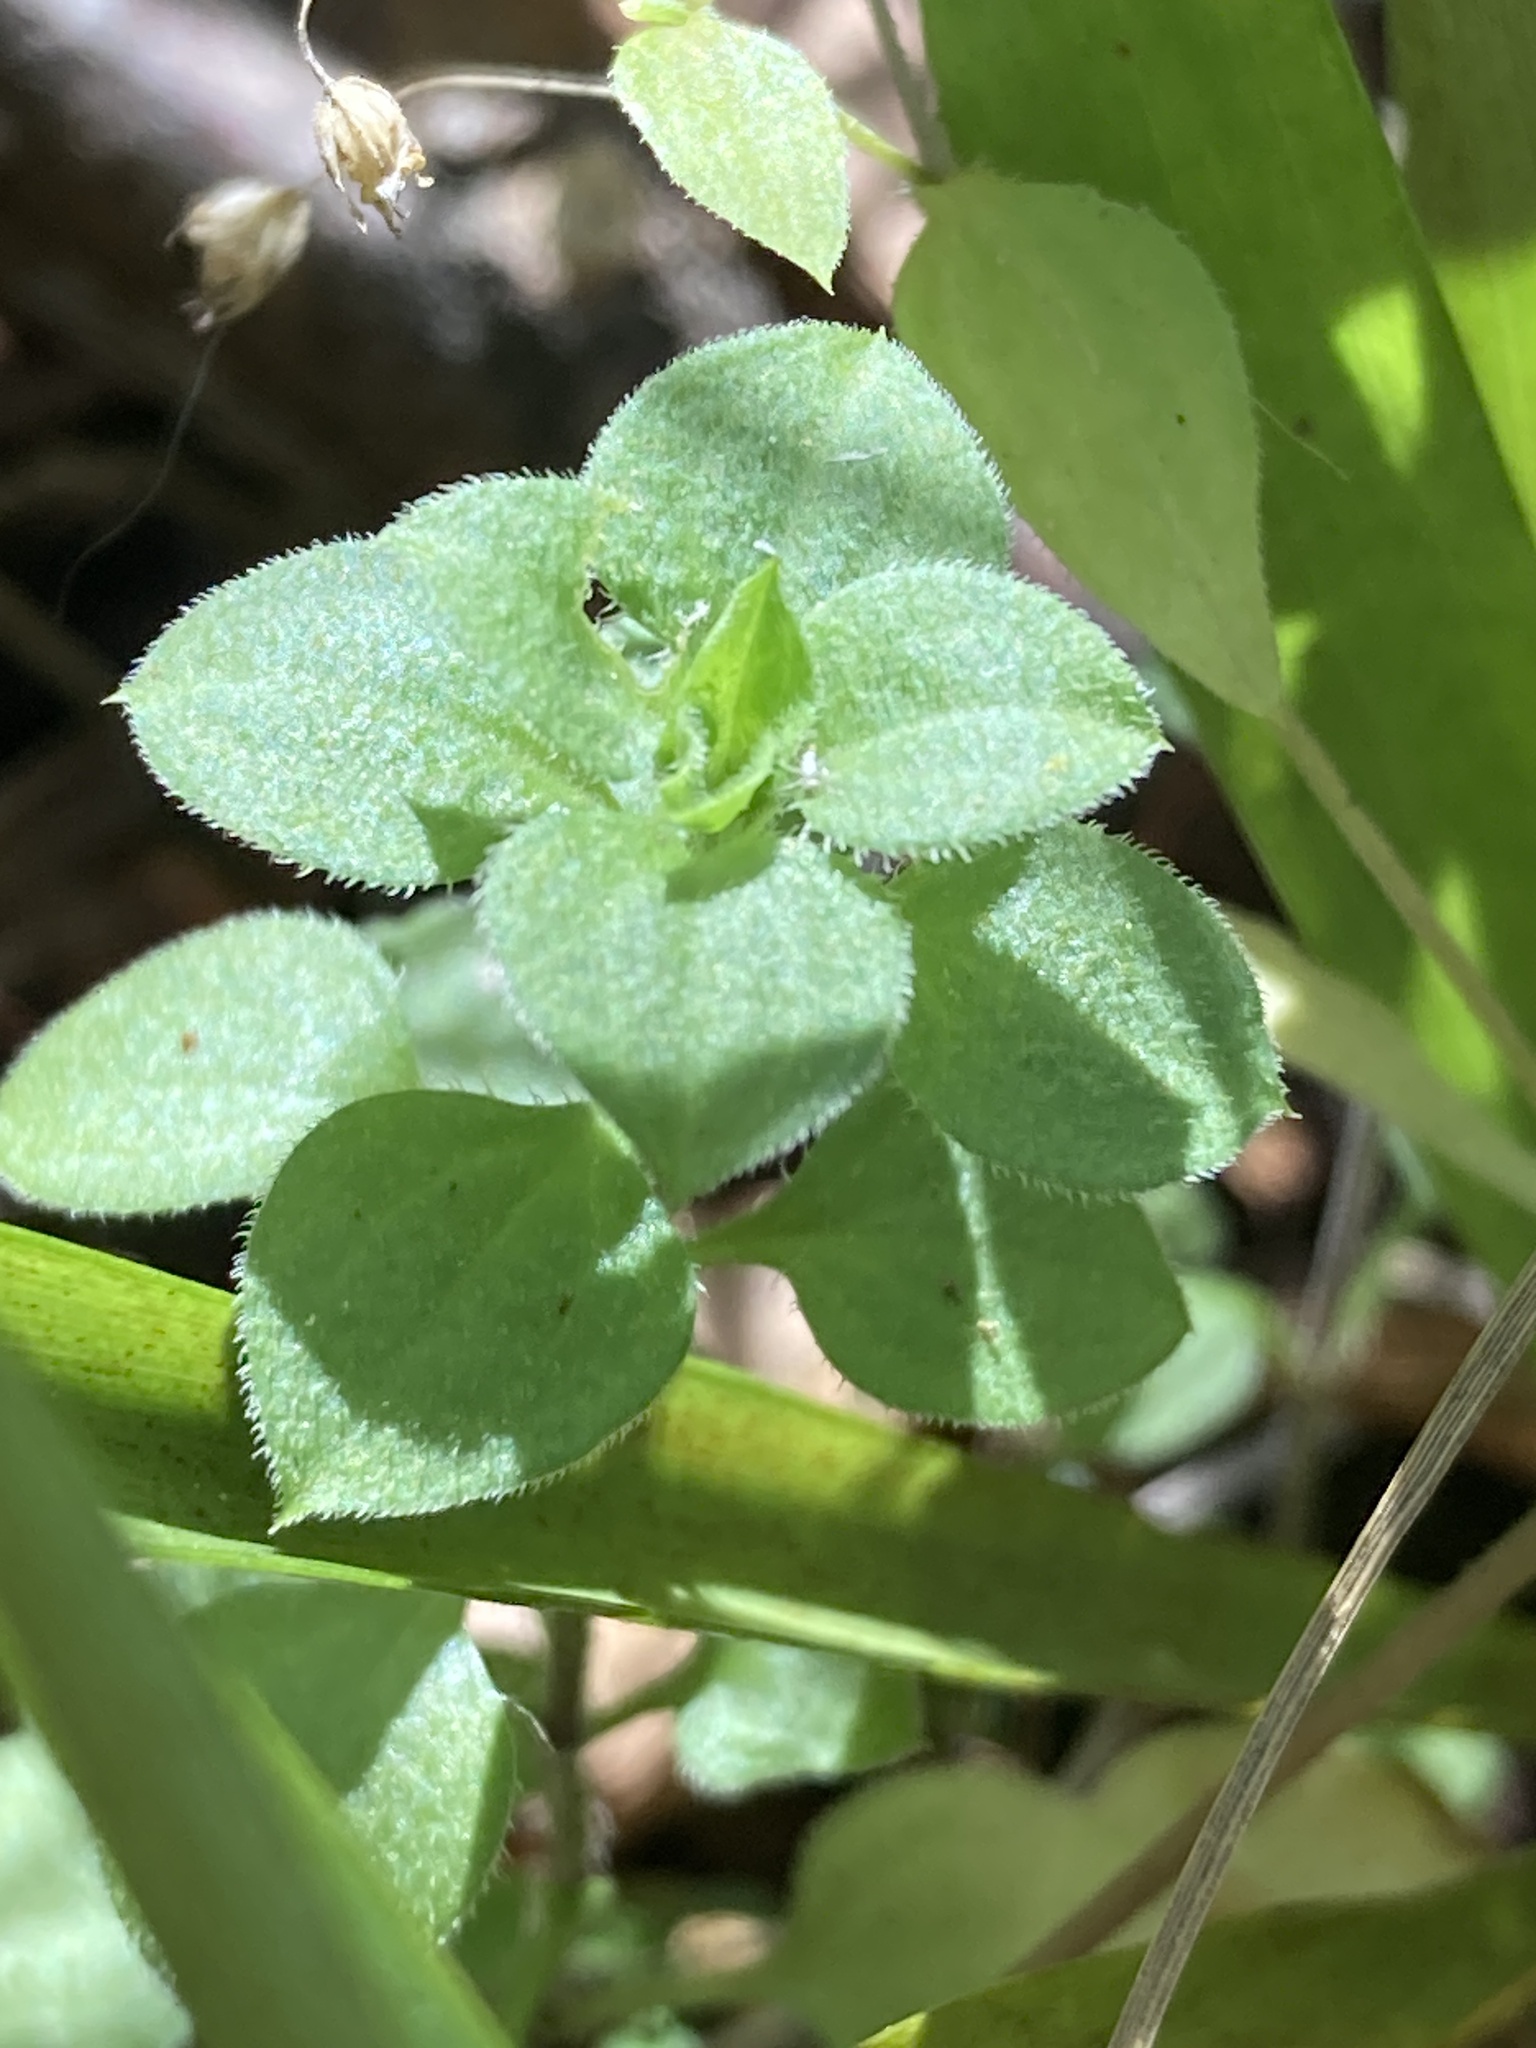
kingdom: Plantae
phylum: Tracheophyta
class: Magnoliopsida
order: Caryophyllales
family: Caryophyllaceae
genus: Moehringia
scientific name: Moehringia trinervia
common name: Three-nerved sandwort
